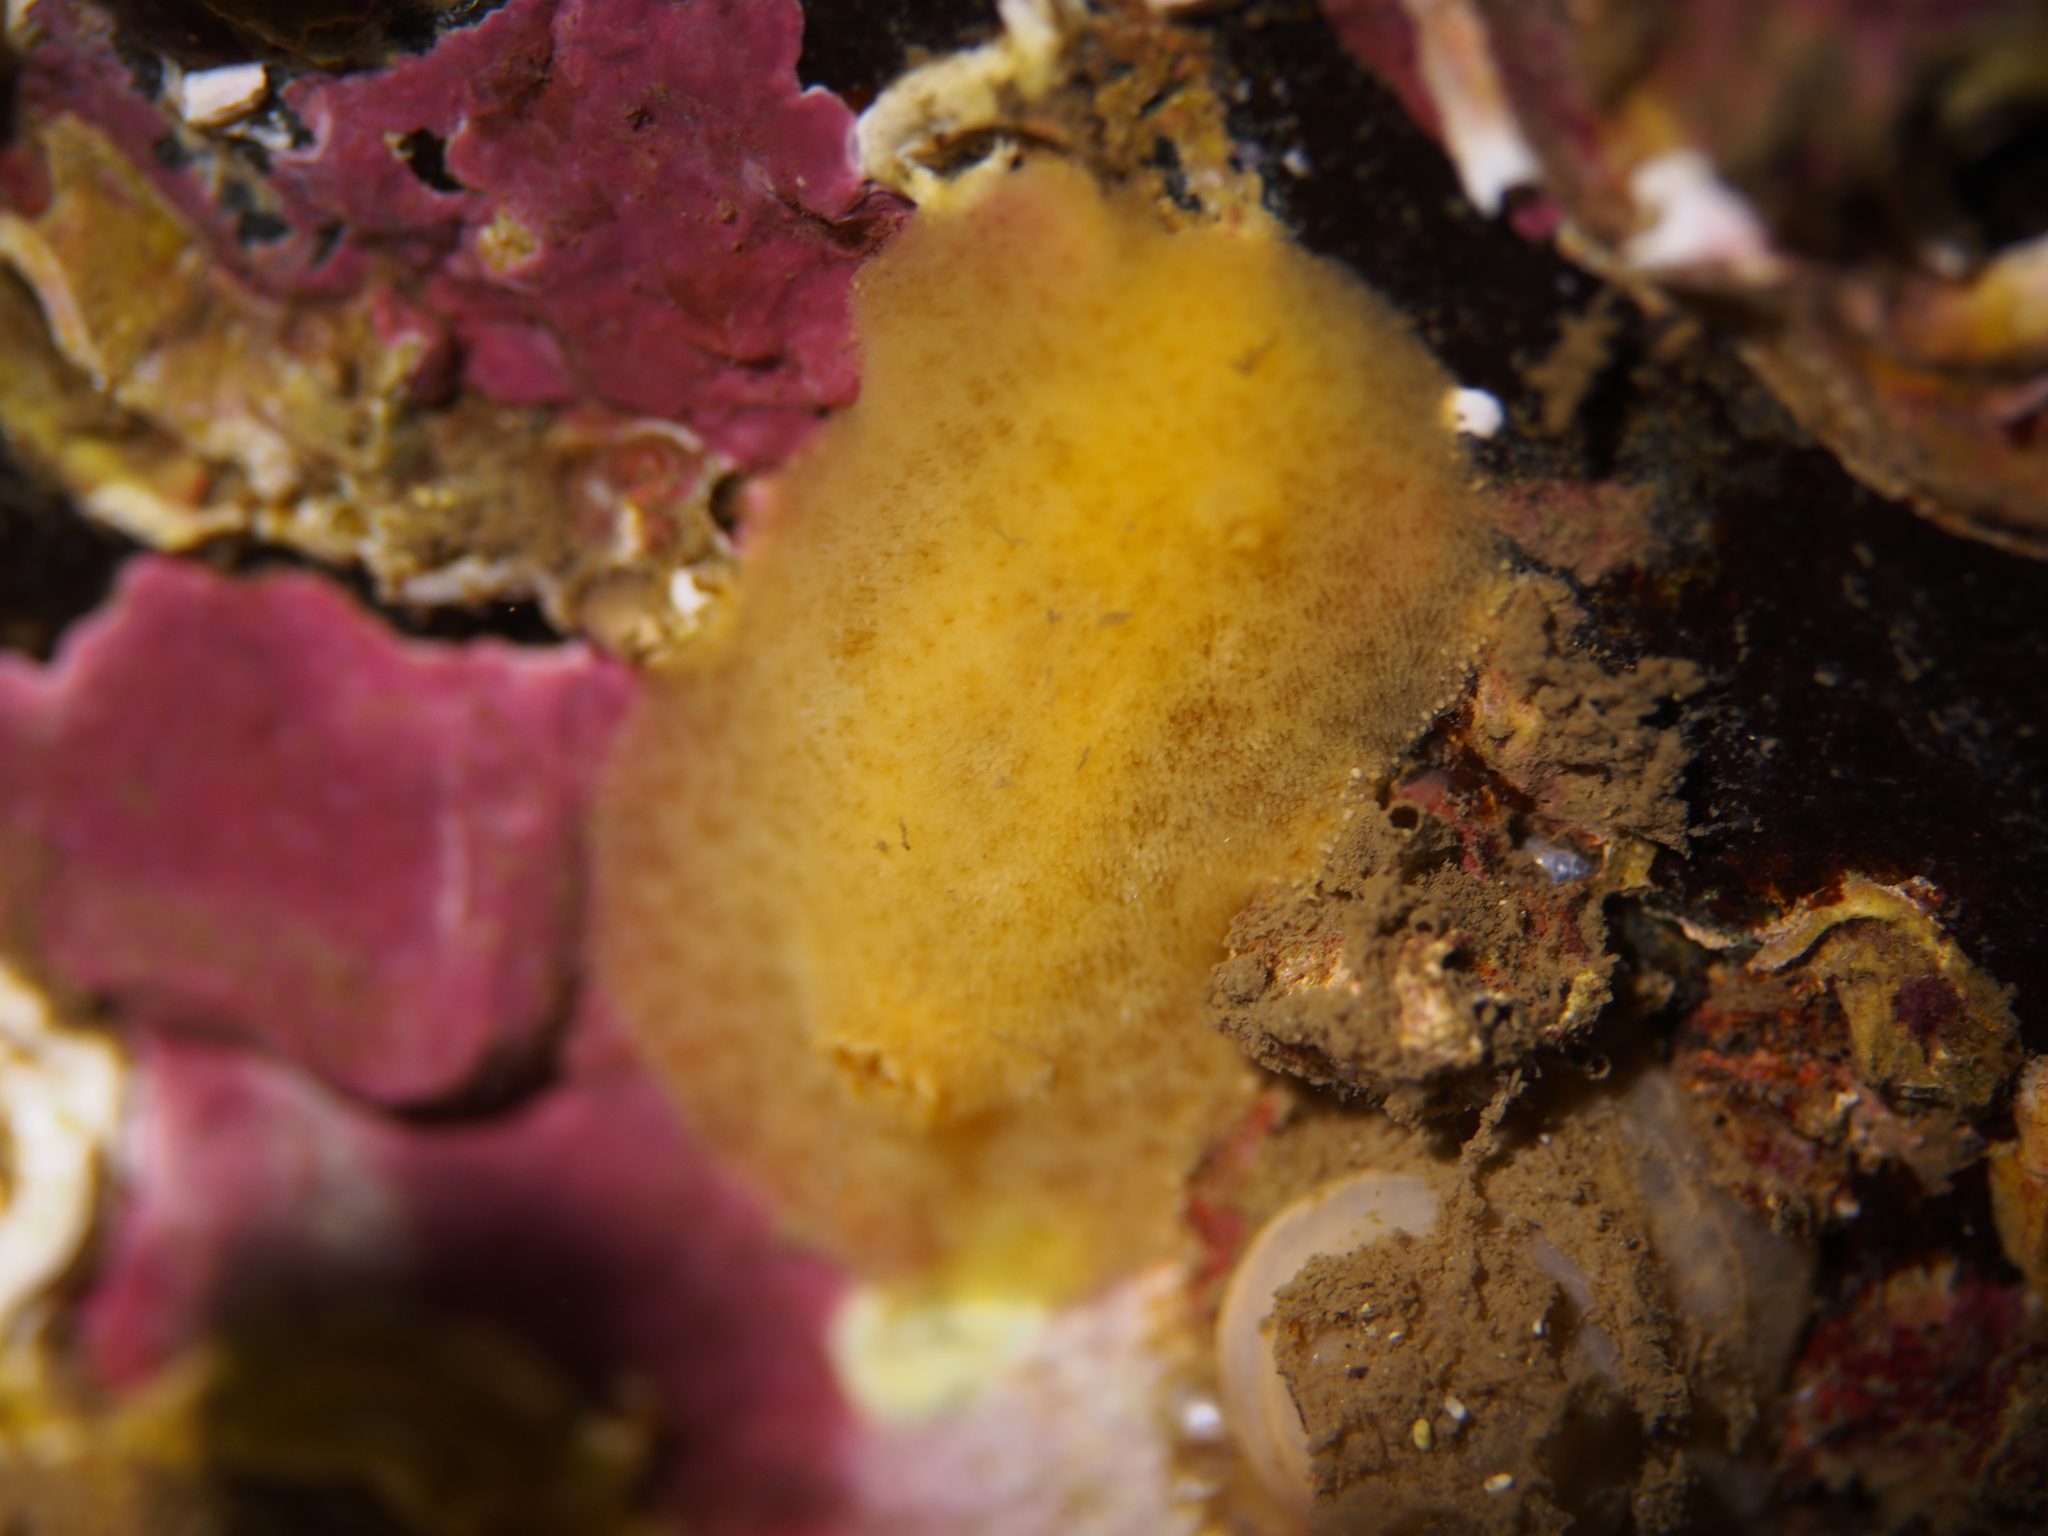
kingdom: Animalia
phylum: Mollusca
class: Gastropoda
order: Nudibranchia
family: Discodorididae
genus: Jorunna
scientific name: Jorunna tomentosa
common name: Grey sea slug
